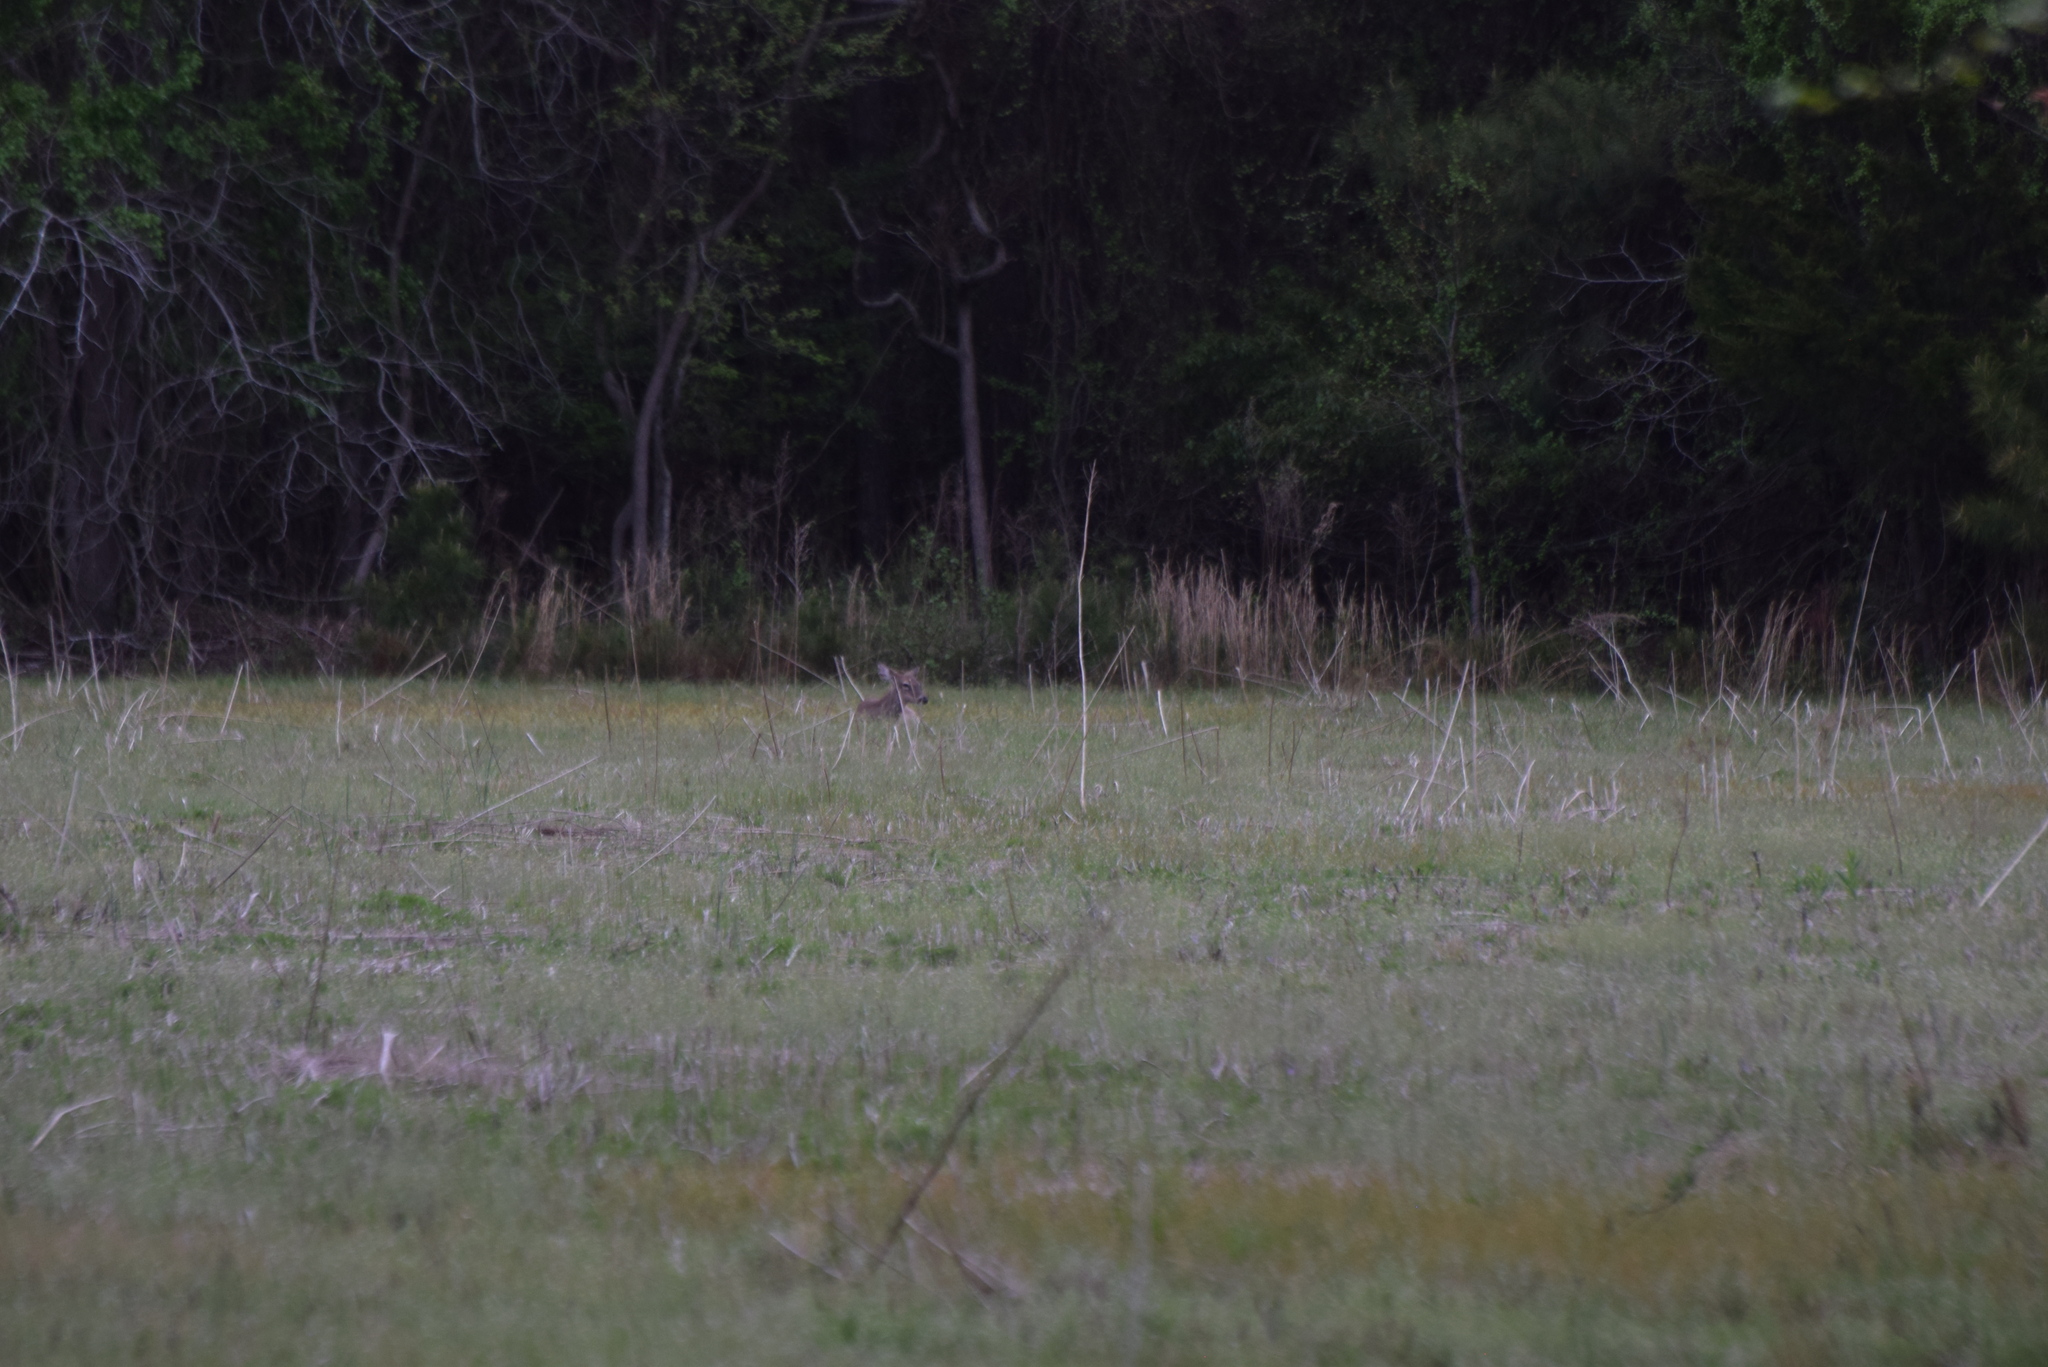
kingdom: Animalia
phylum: Chordata
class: Mammalia
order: Artiodactyla
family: Cervidae
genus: Odocoileus
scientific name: Odocoileus virginianus
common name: White-tailed deer
